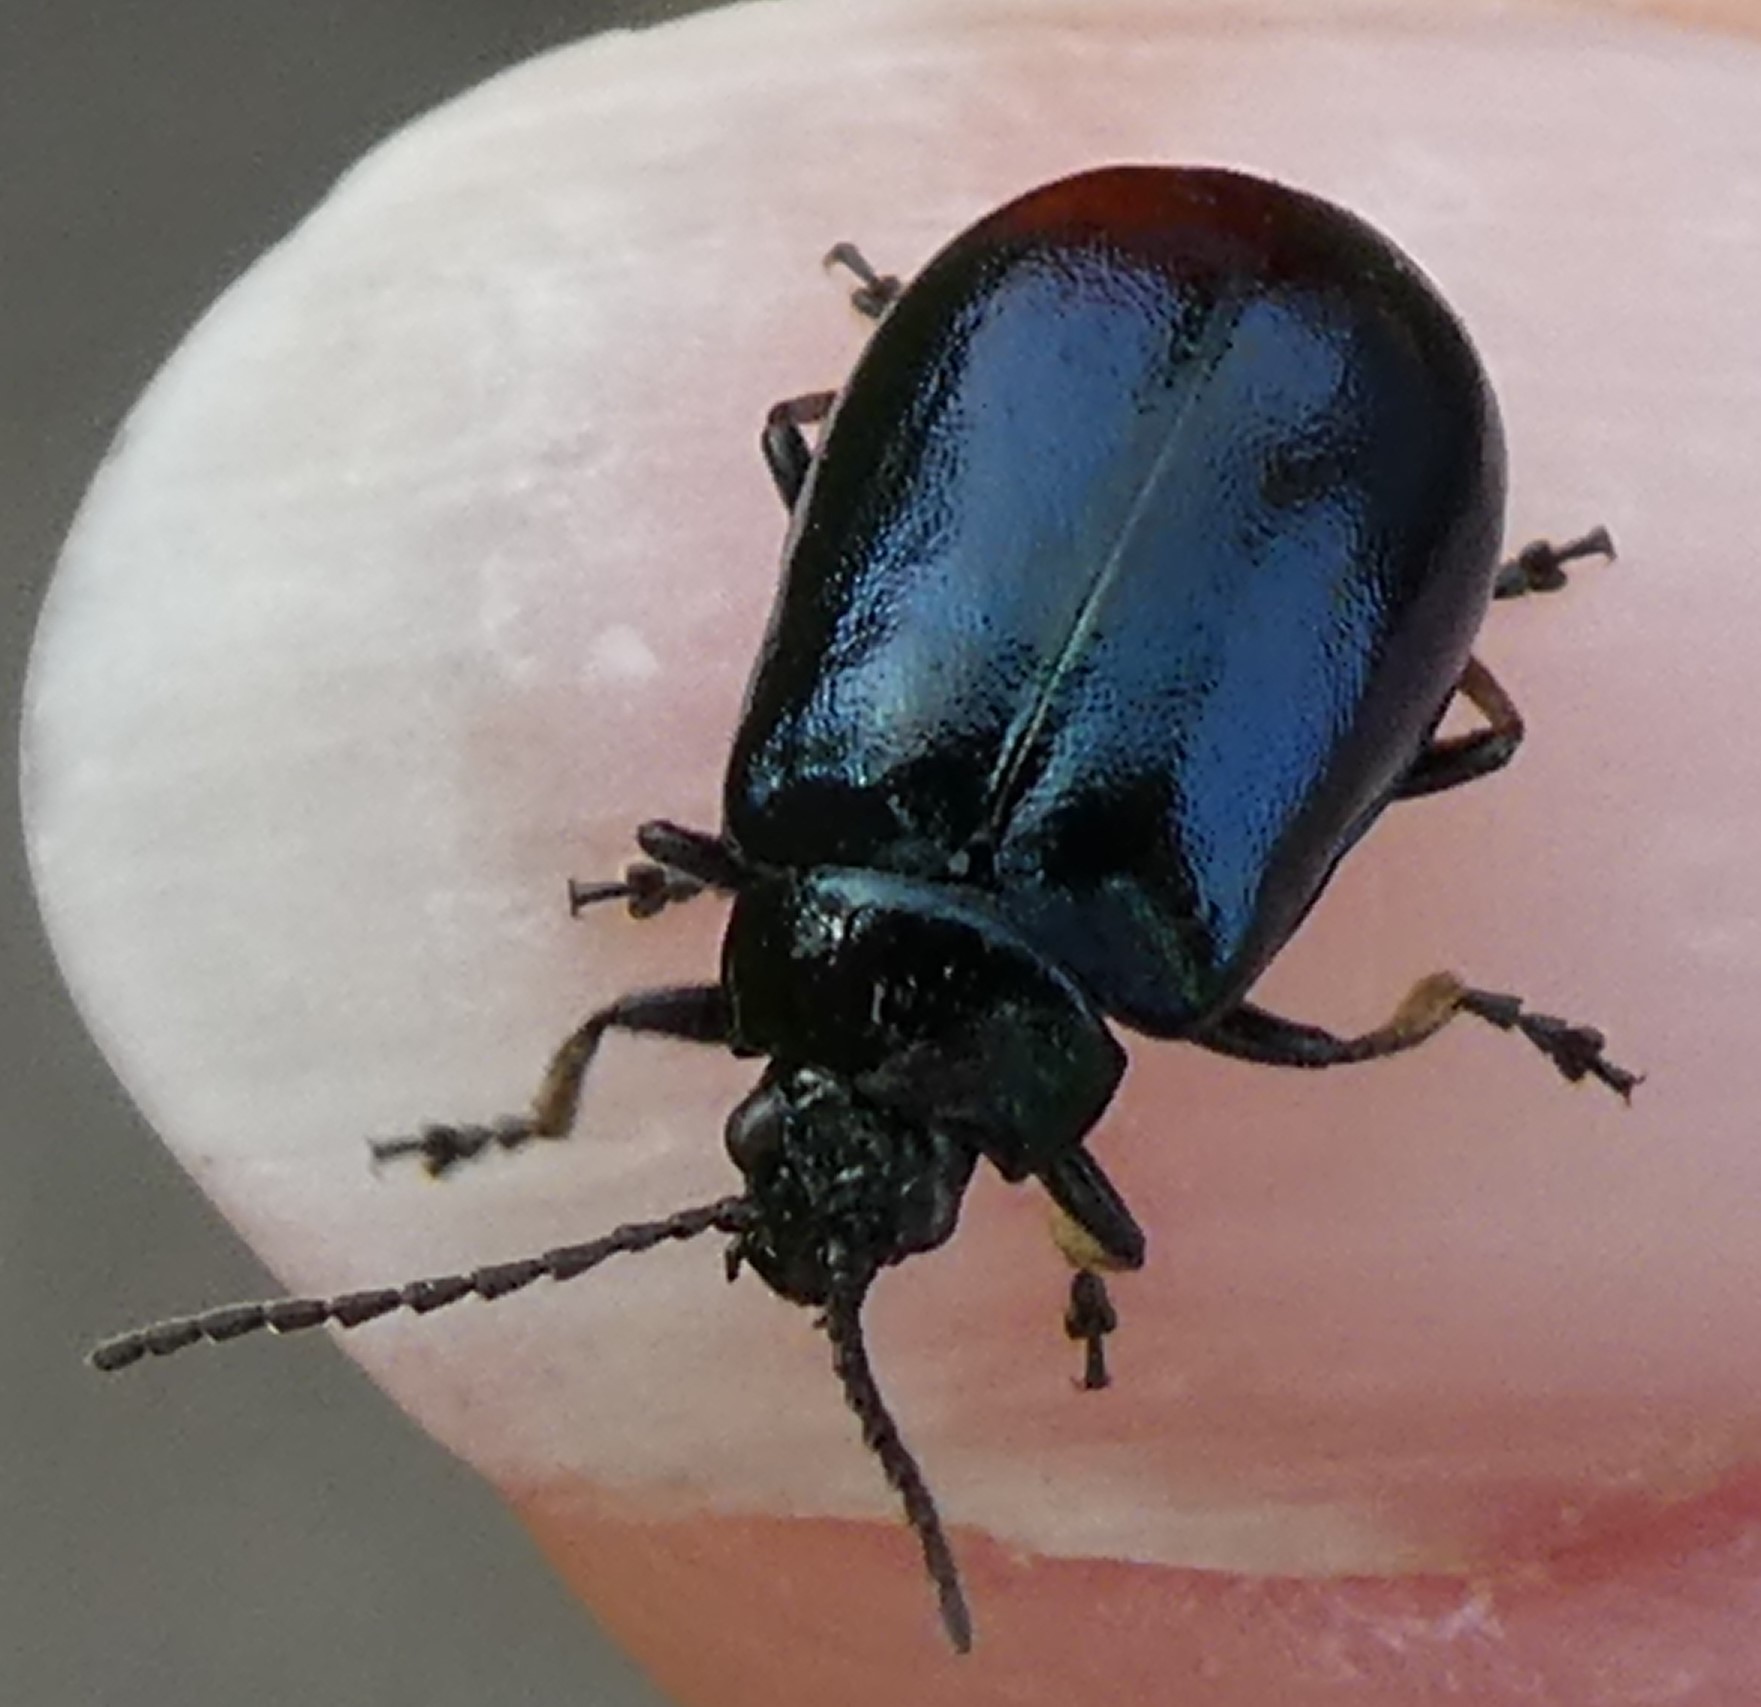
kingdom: Animalia
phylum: Arthropoda
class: Insecta
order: Coleoptera
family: Chrysomelidae
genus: Agelastica
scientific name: Agelastica alni
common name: Alder leaf beetle
